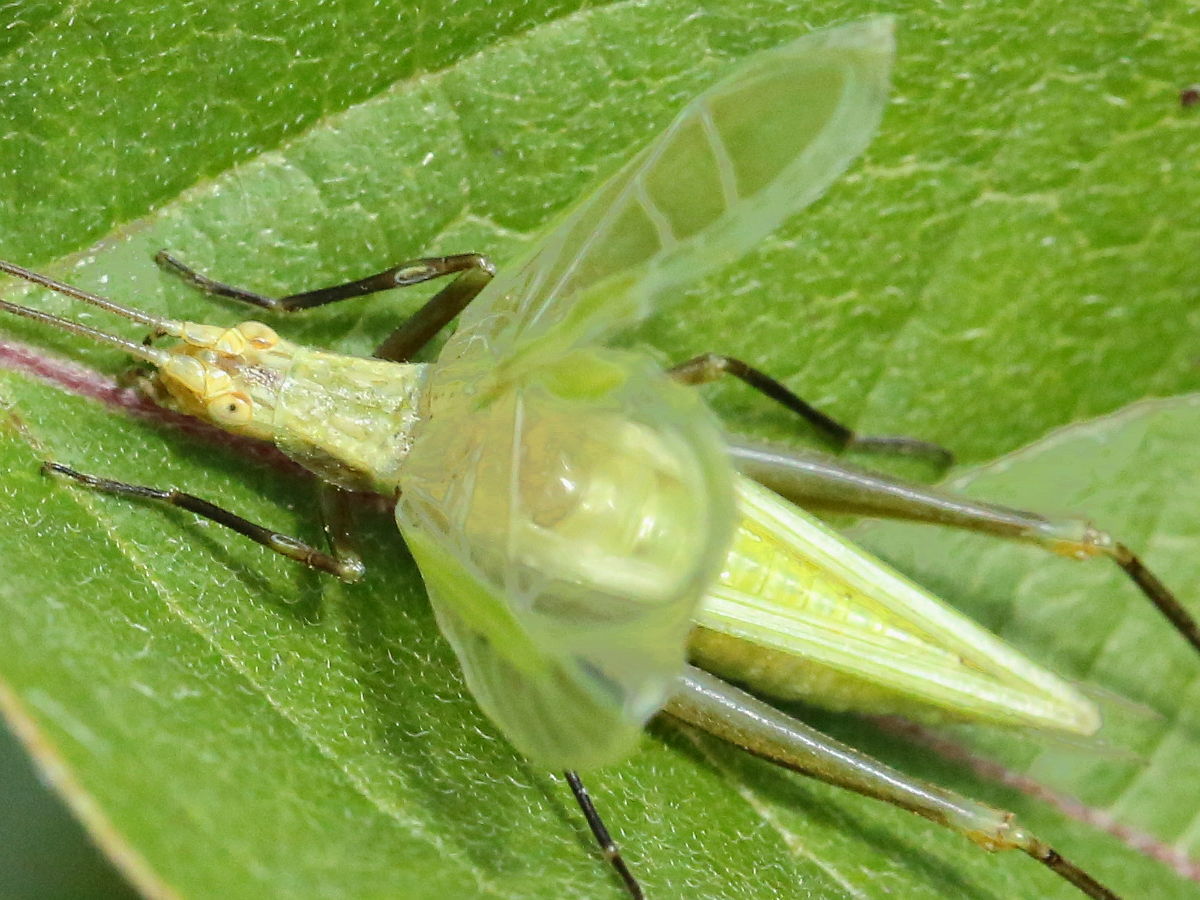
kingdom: Animalia
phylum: Arthropoda
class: Insecta
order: Orthoptera
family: Gryllidae
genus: Oecanthus
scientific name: Oecanthus forbesi
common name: Forbes’s tree cricket
